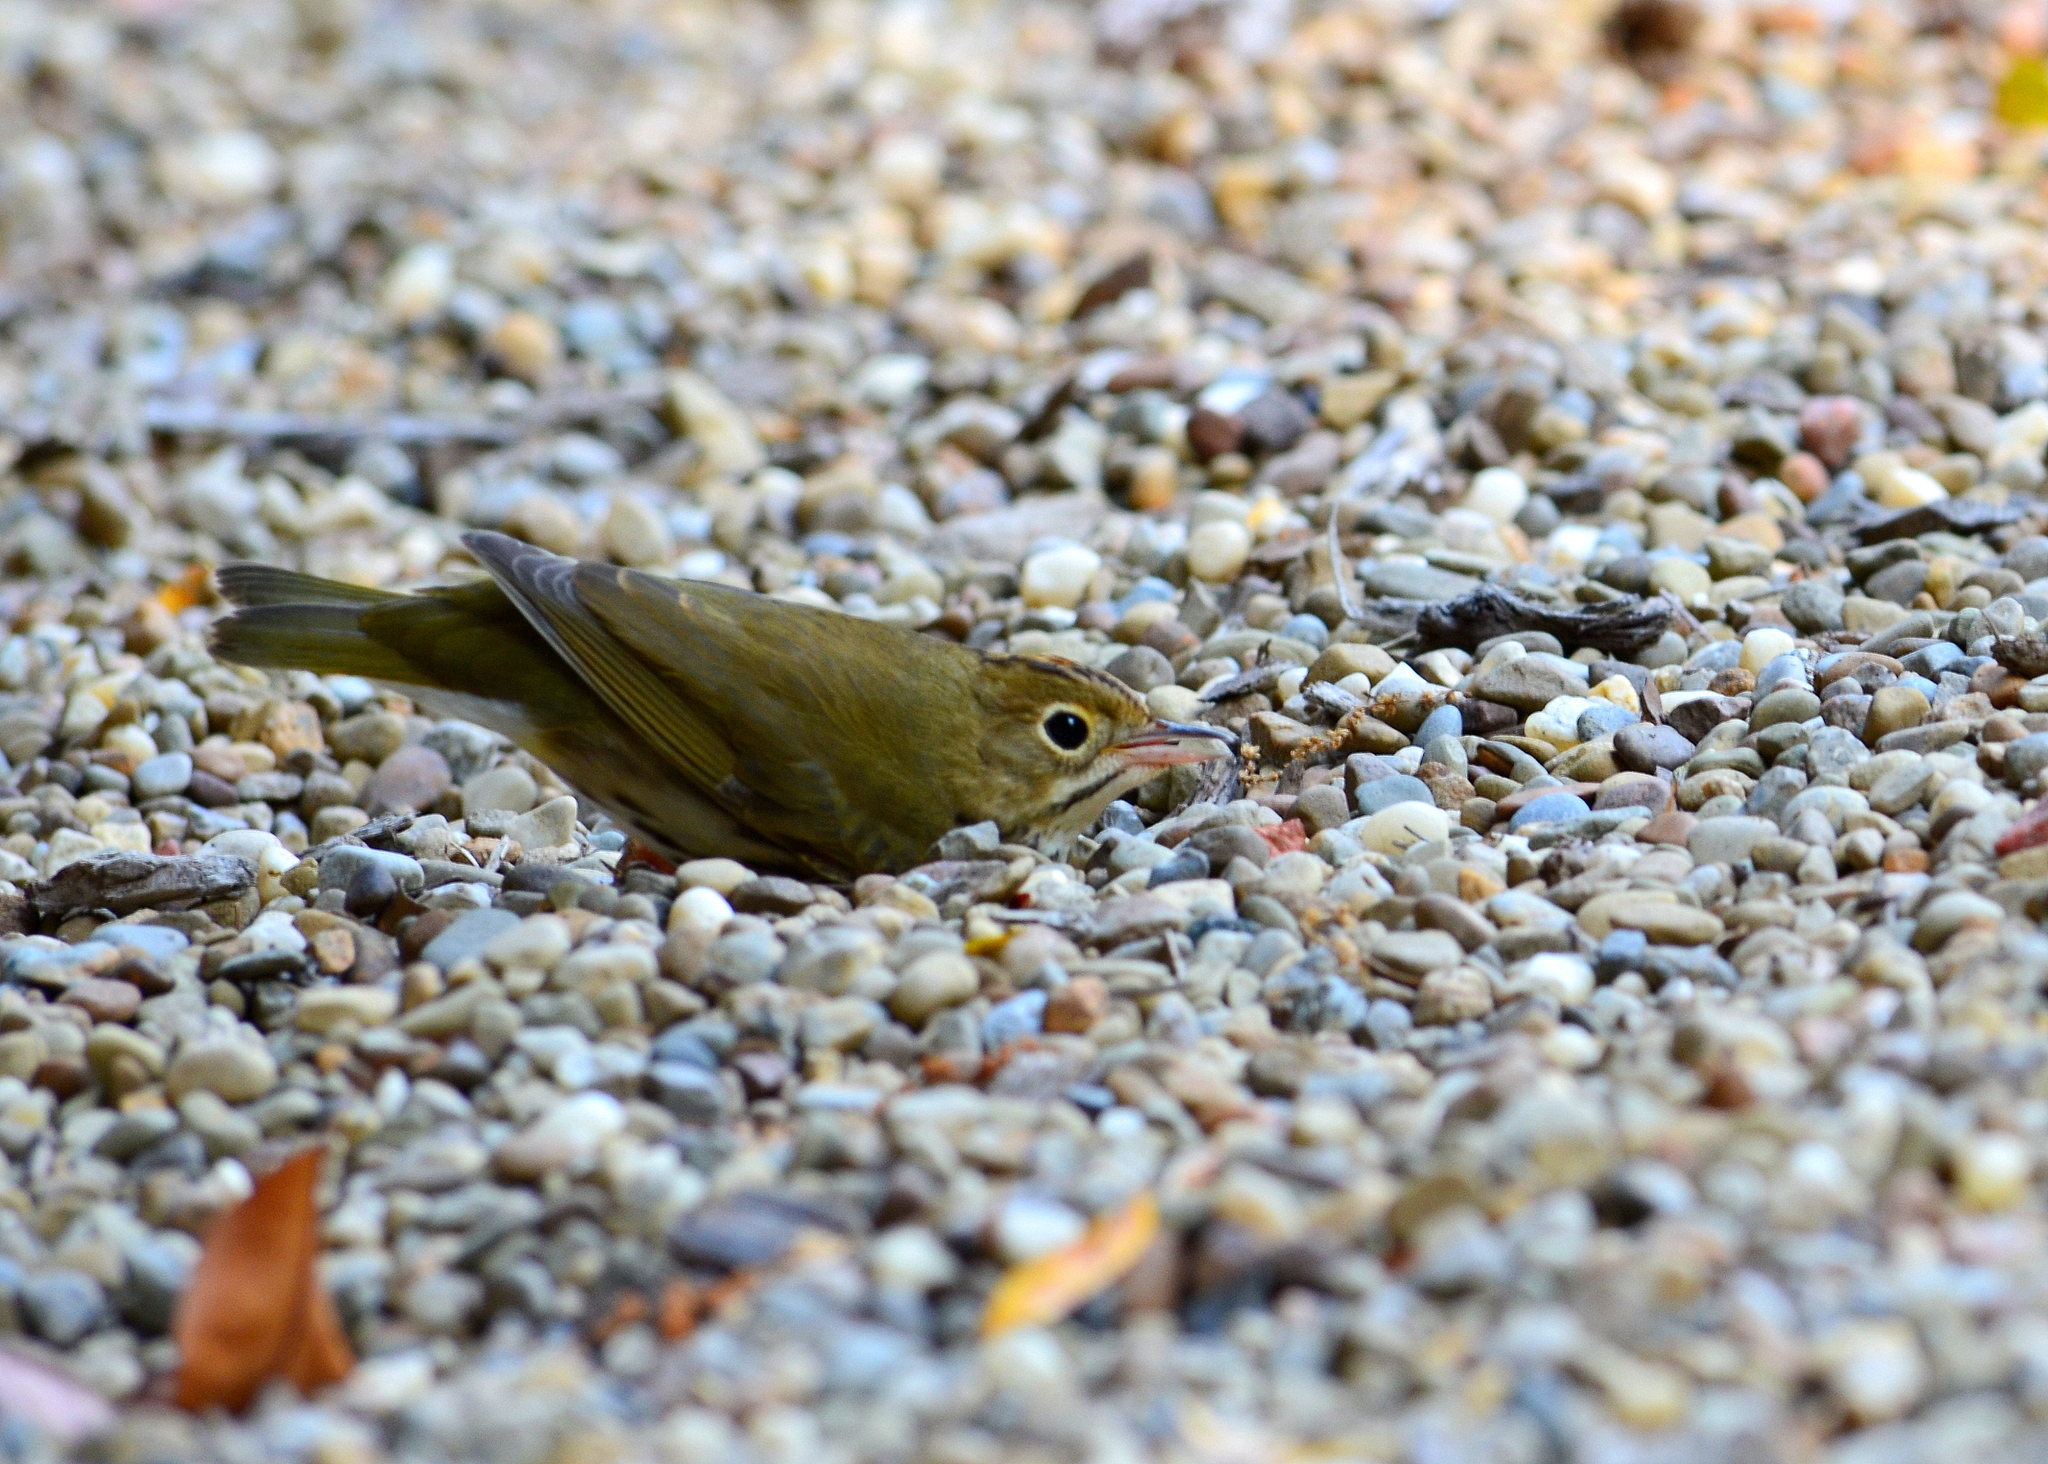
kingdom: Animalia
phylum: Chordata
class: Aves
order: Passeriformes
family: Parulidae
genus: Seiurus
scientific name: Seiurus aurocapilla
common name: Ovenbird
